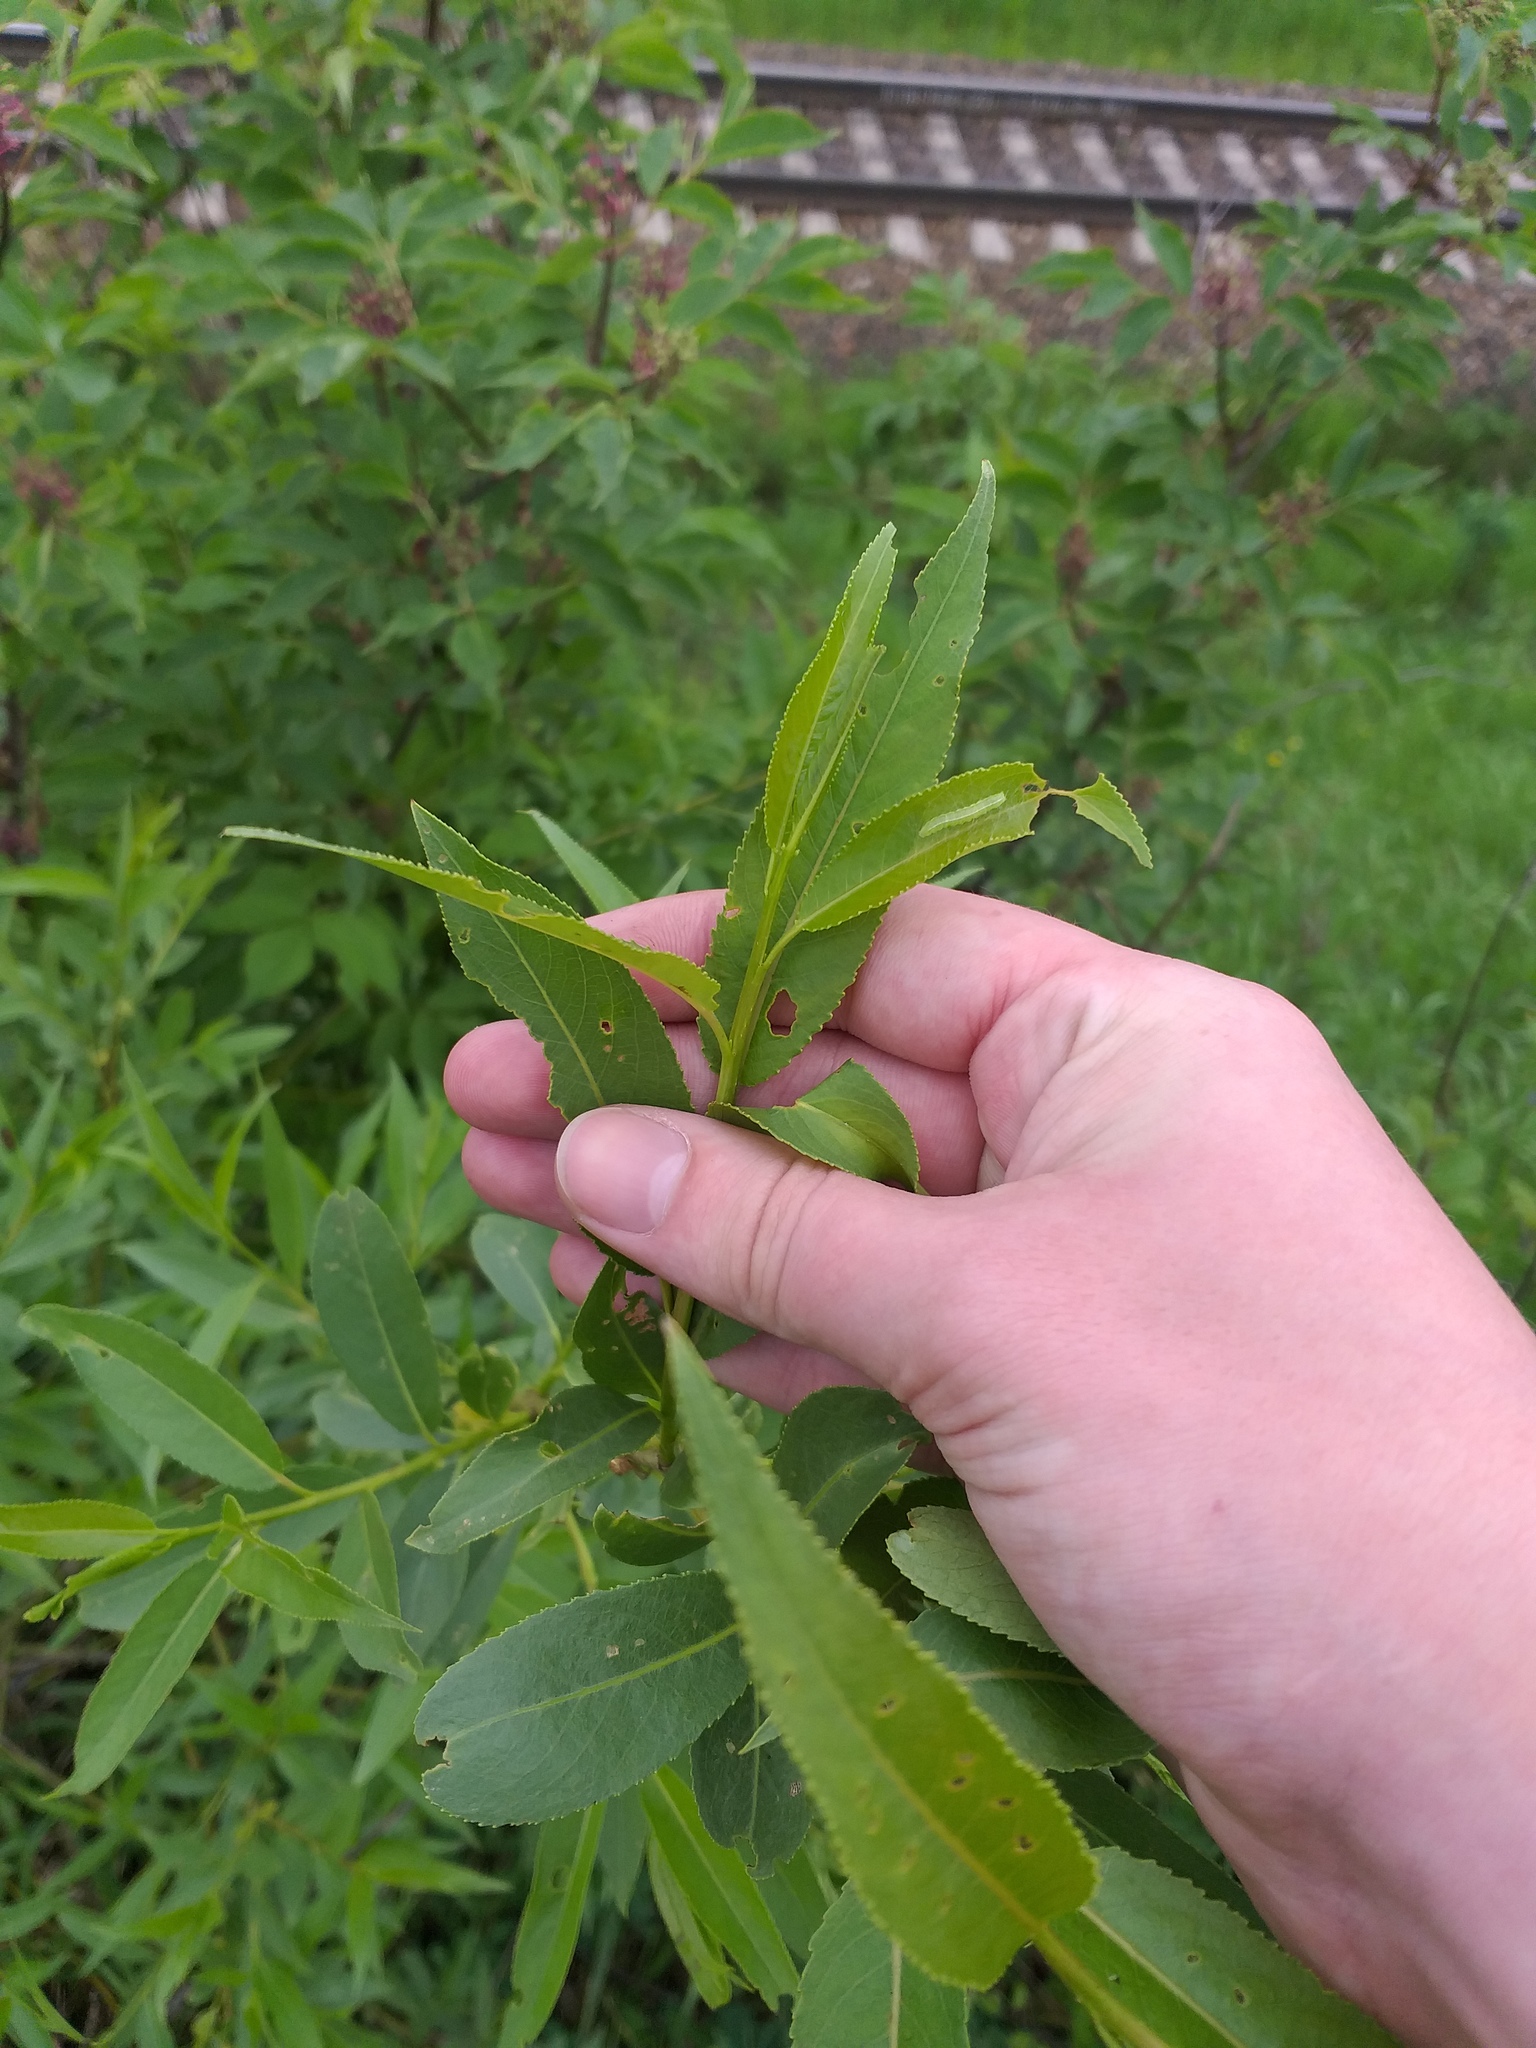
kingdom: Plantae
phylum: Tracheophyta
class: Magnoliopsida
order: Malpighiales
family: Salicaceae
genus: Salix
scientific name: Salix alba
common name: White willow
